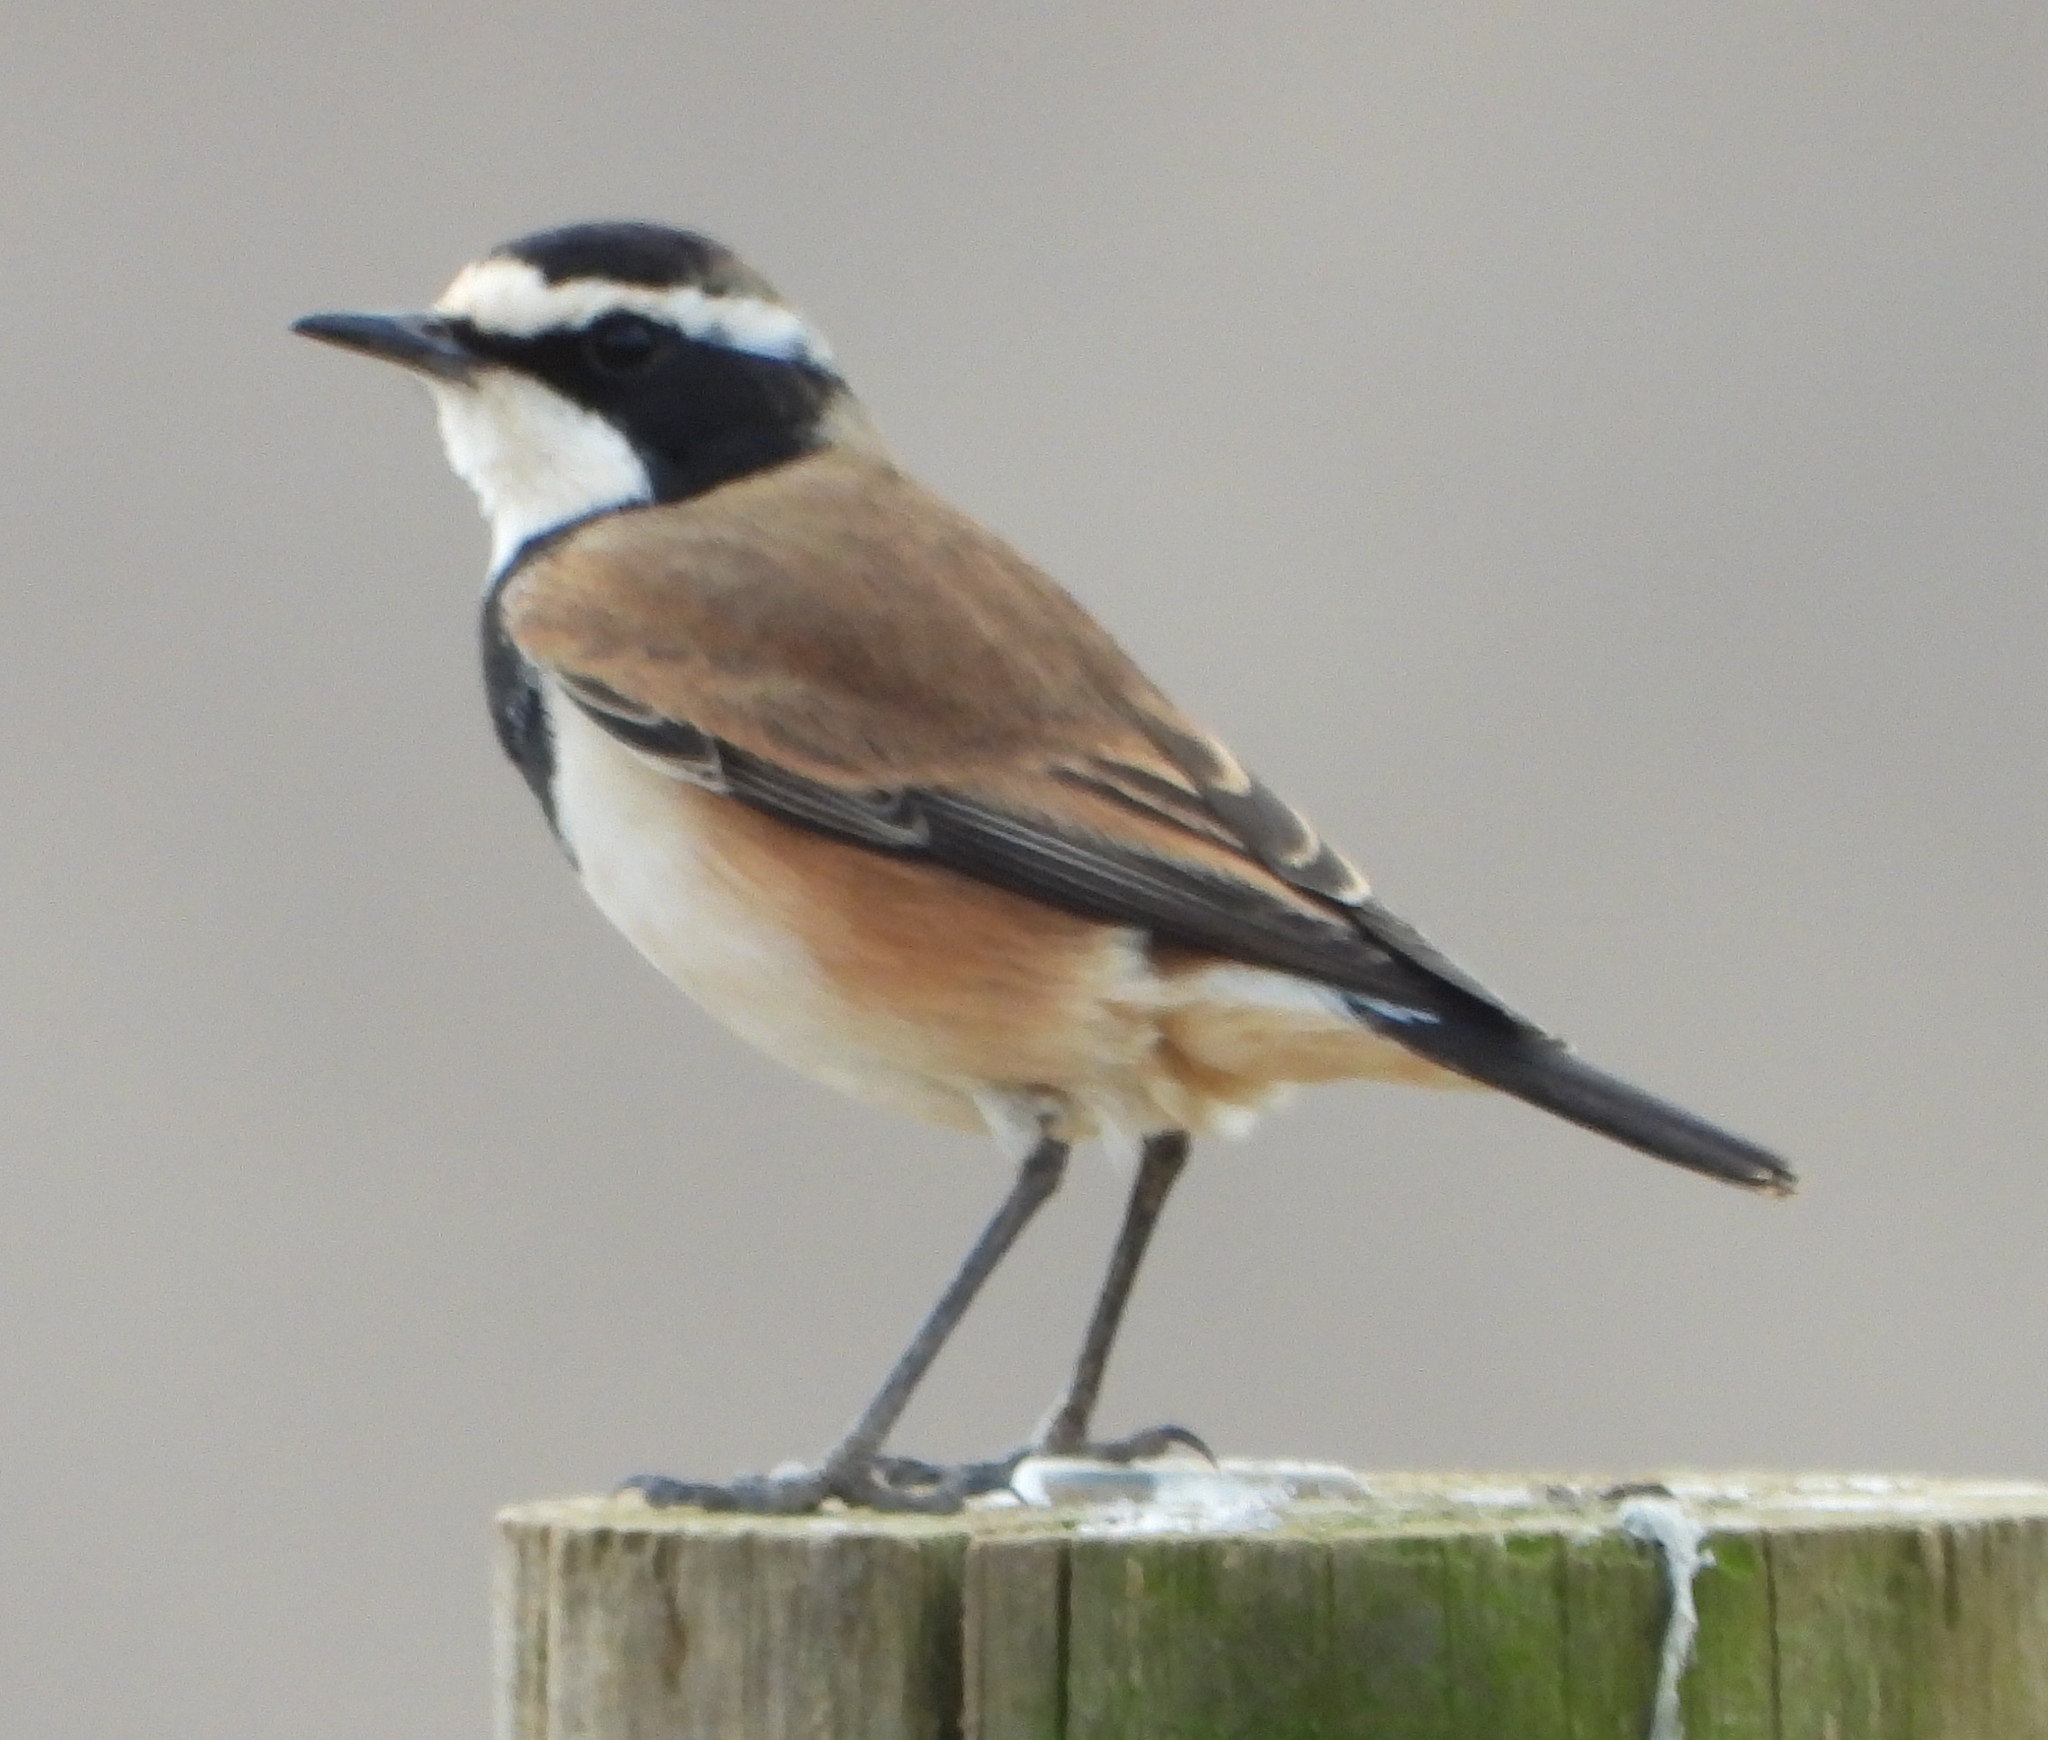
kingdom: Animalia
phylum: Chordata
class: Aves
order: Passeriformes
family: Muscicapidae
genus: Oenanthe
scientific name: Oenanthe pileata
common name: Capped wheatear
